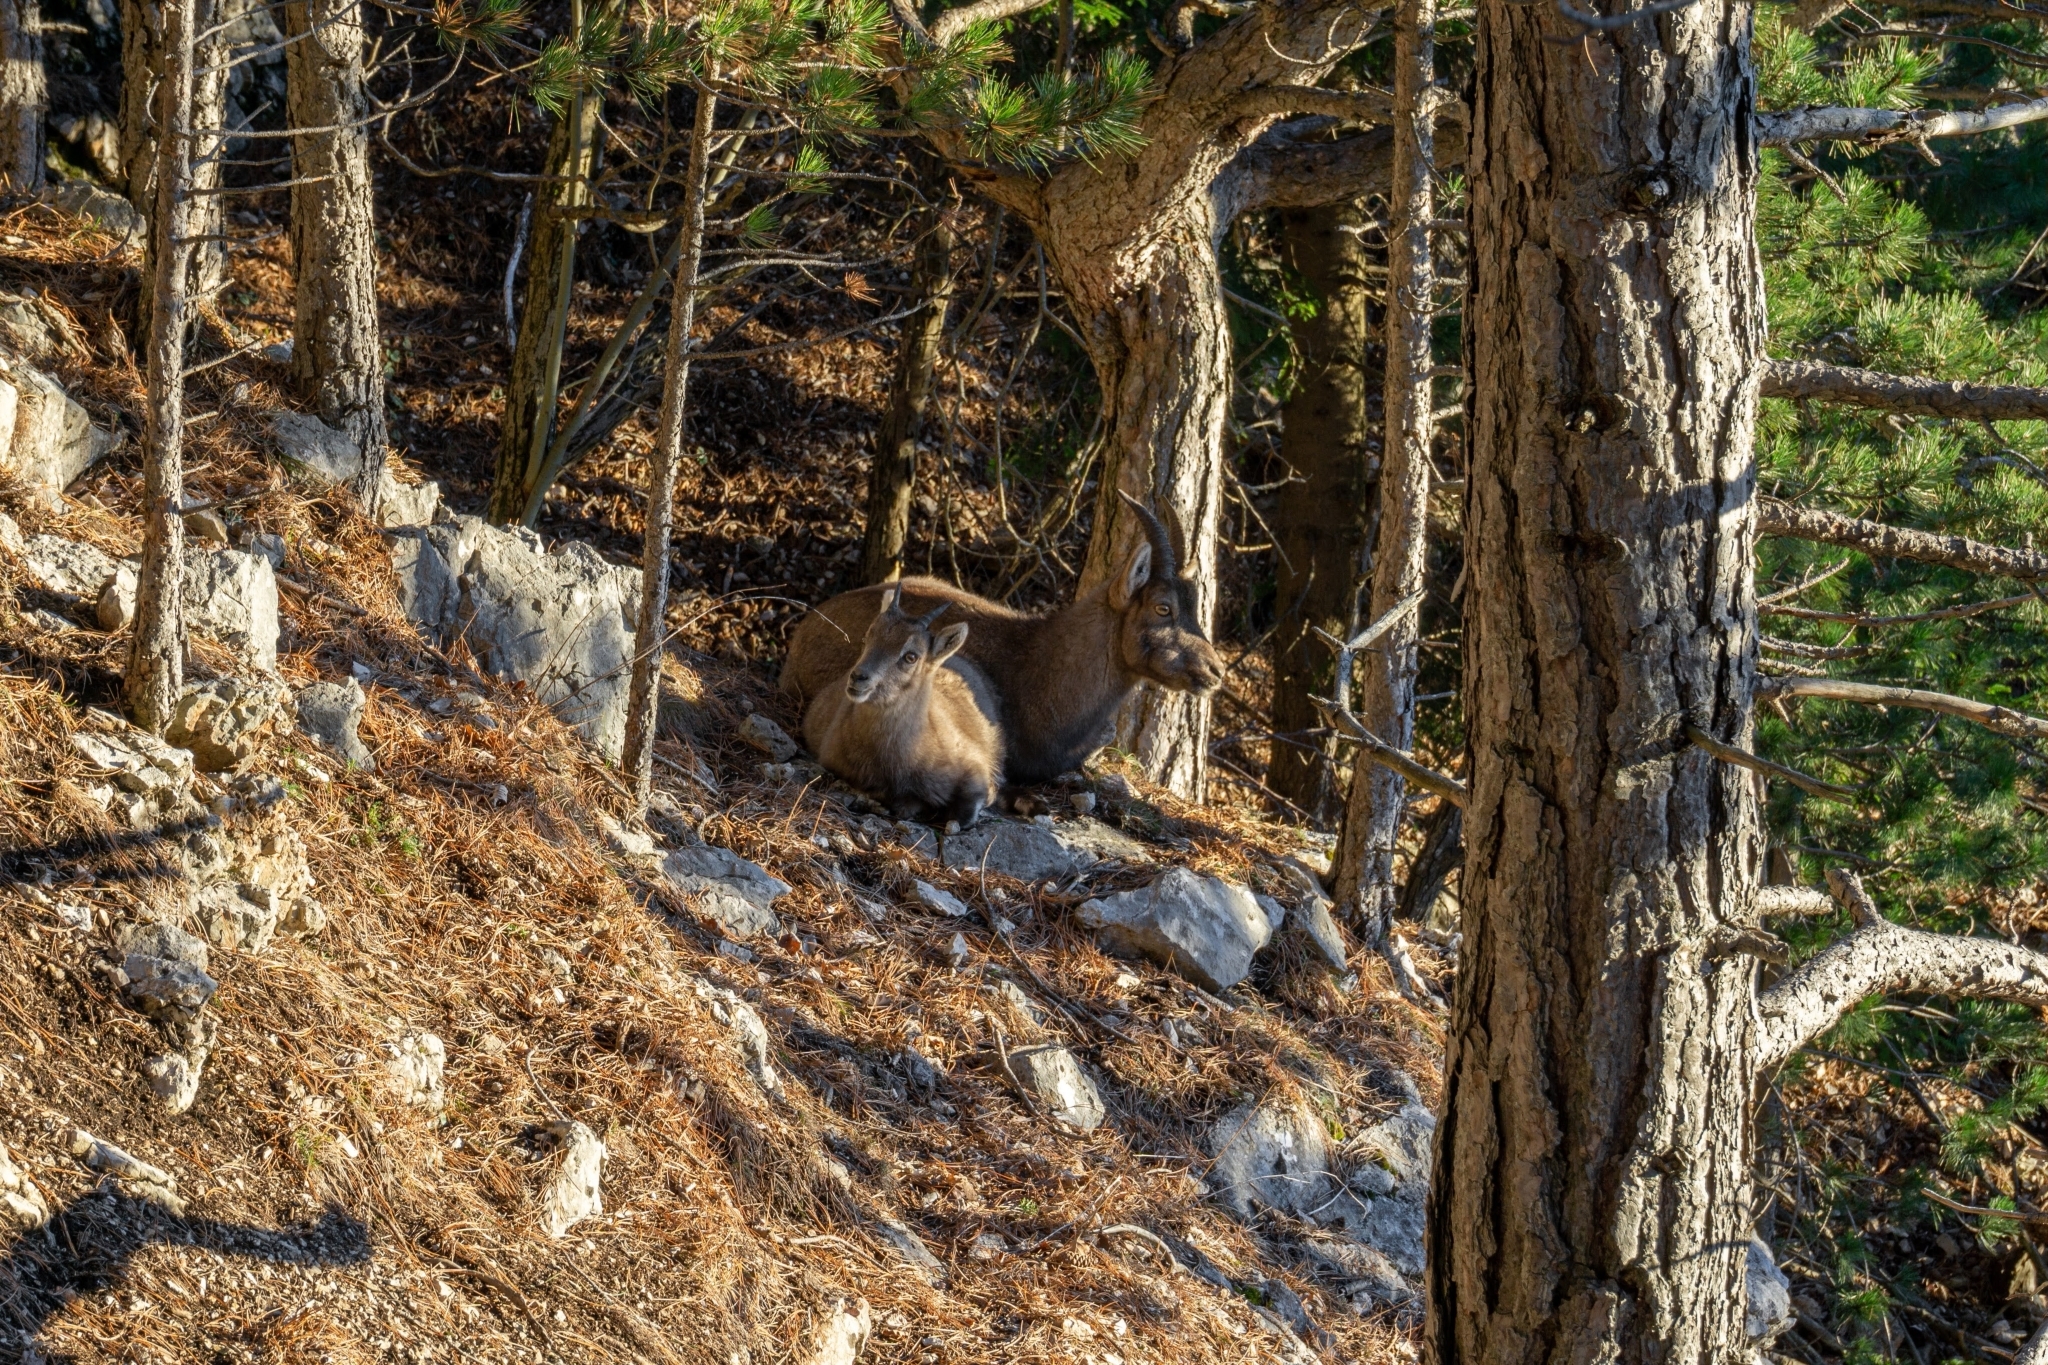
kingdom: Animalia
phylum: Chordata
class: Mammalia
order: Artiodactyla
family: Bovidae
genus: Capra
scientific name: Capra ibex
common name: Alpine ibex
